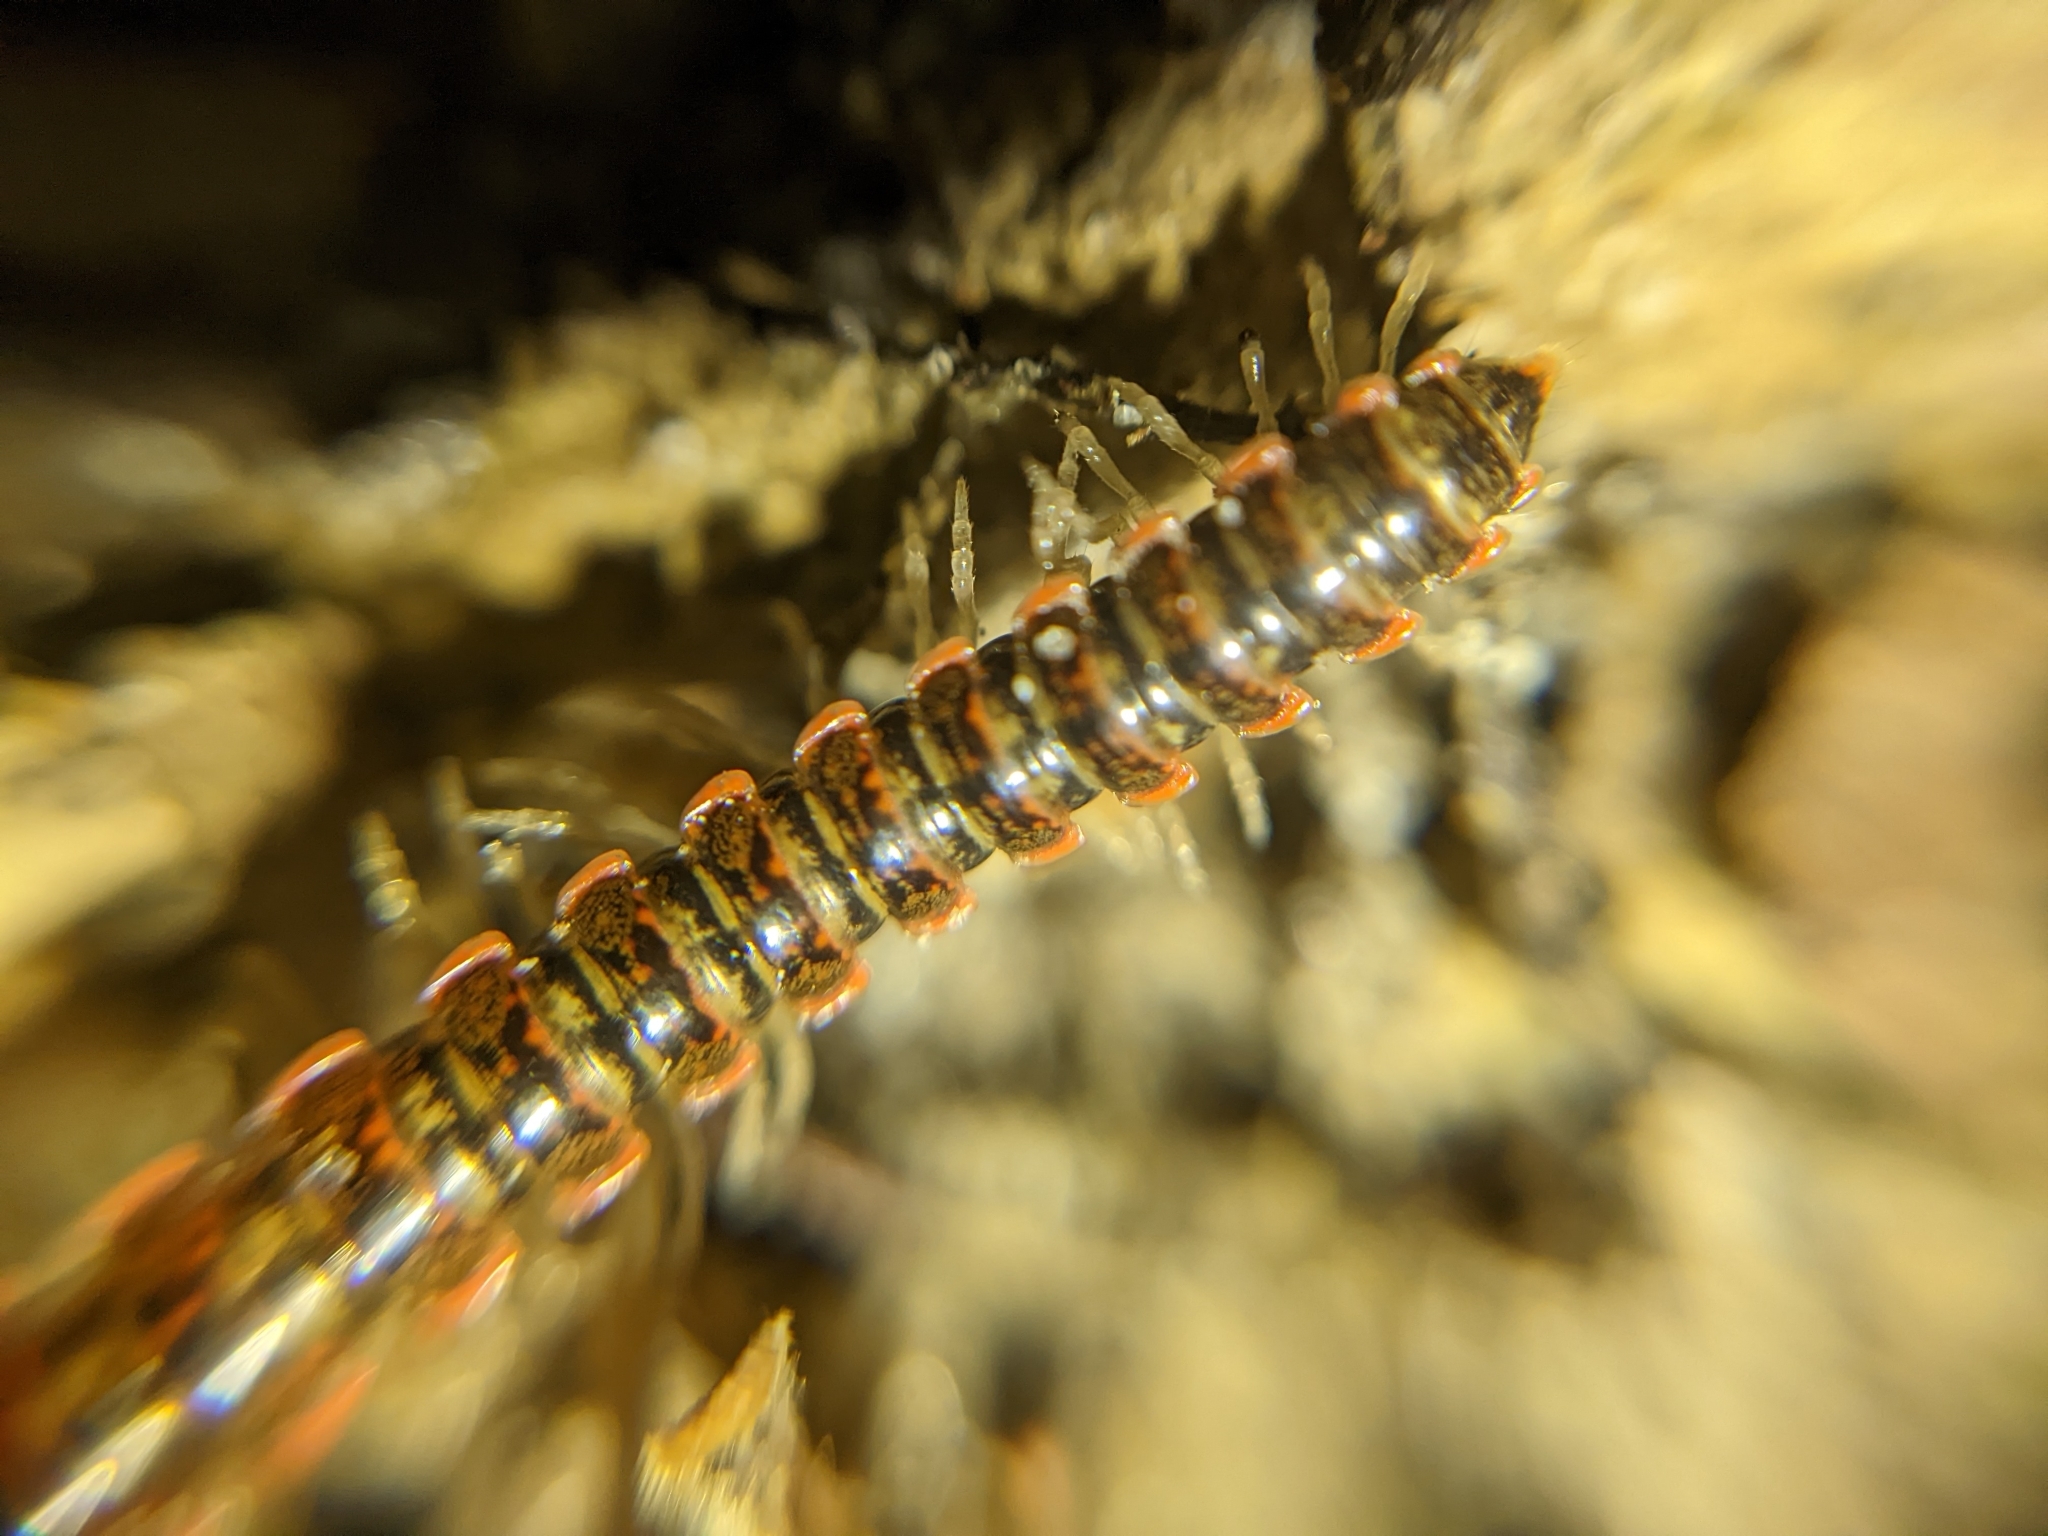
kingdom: Animalia
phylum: Arthropoda
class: Diplopoda
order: Polydesmida
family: Xystodesmidae
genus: Eurymerodesmus
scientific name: Eurymerodesmus
